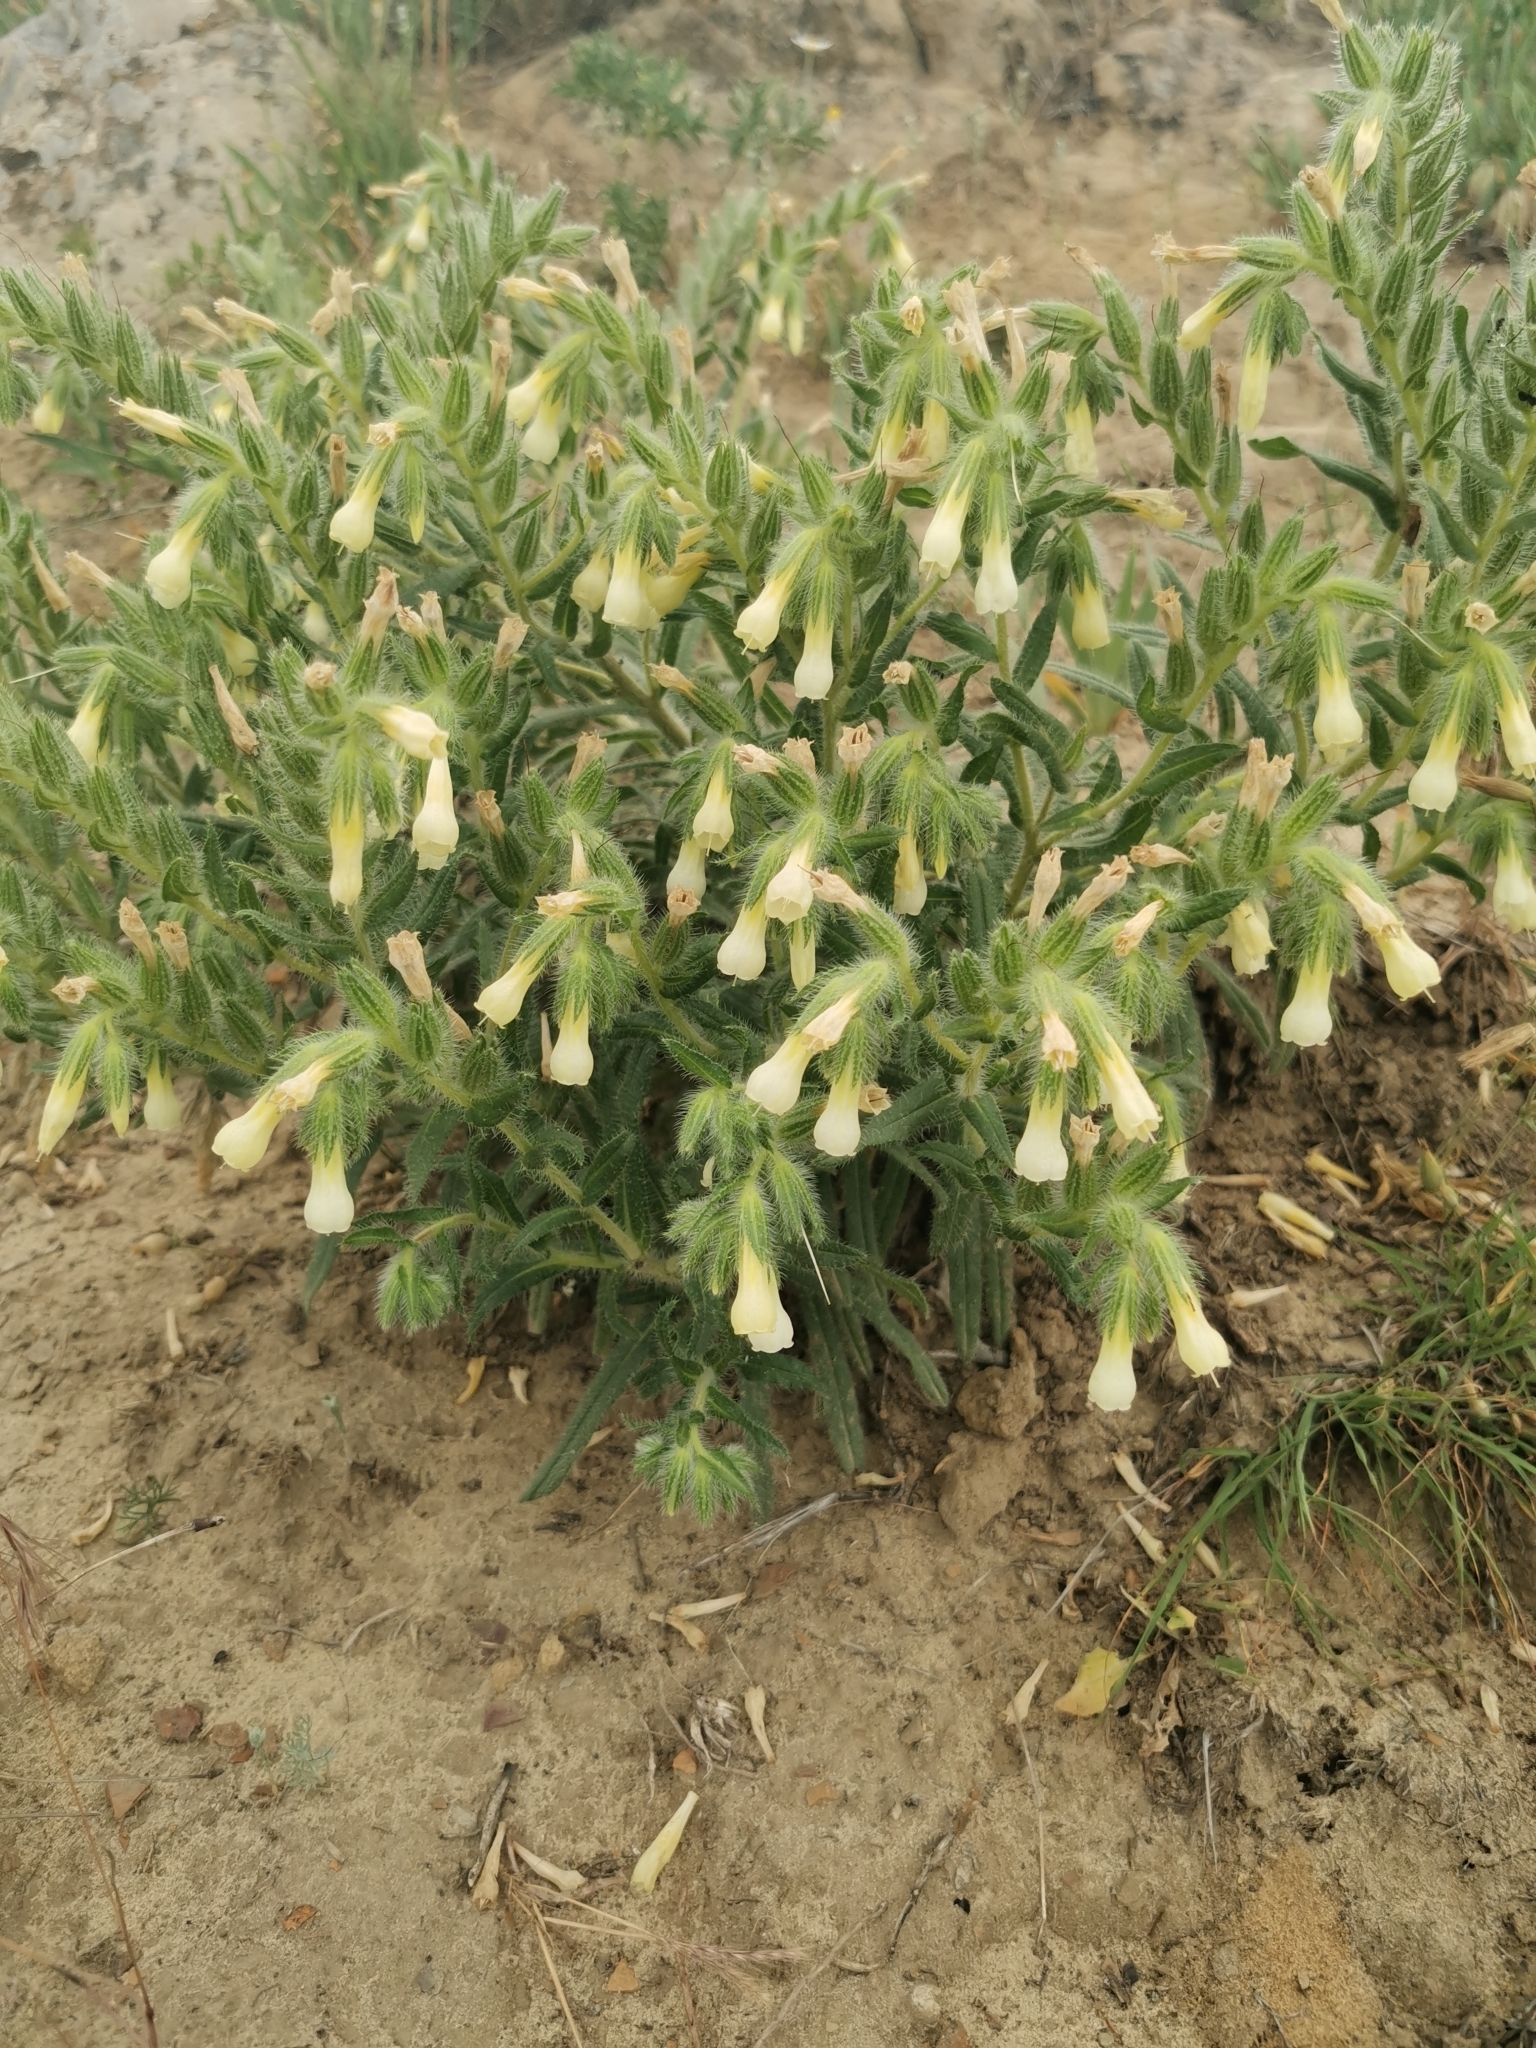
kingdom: Plantae
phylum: Tracheophyta
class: Magnoliopsida
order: Boraginales
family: Boraginaceae
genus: Onosma
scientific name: Onosma setosa
